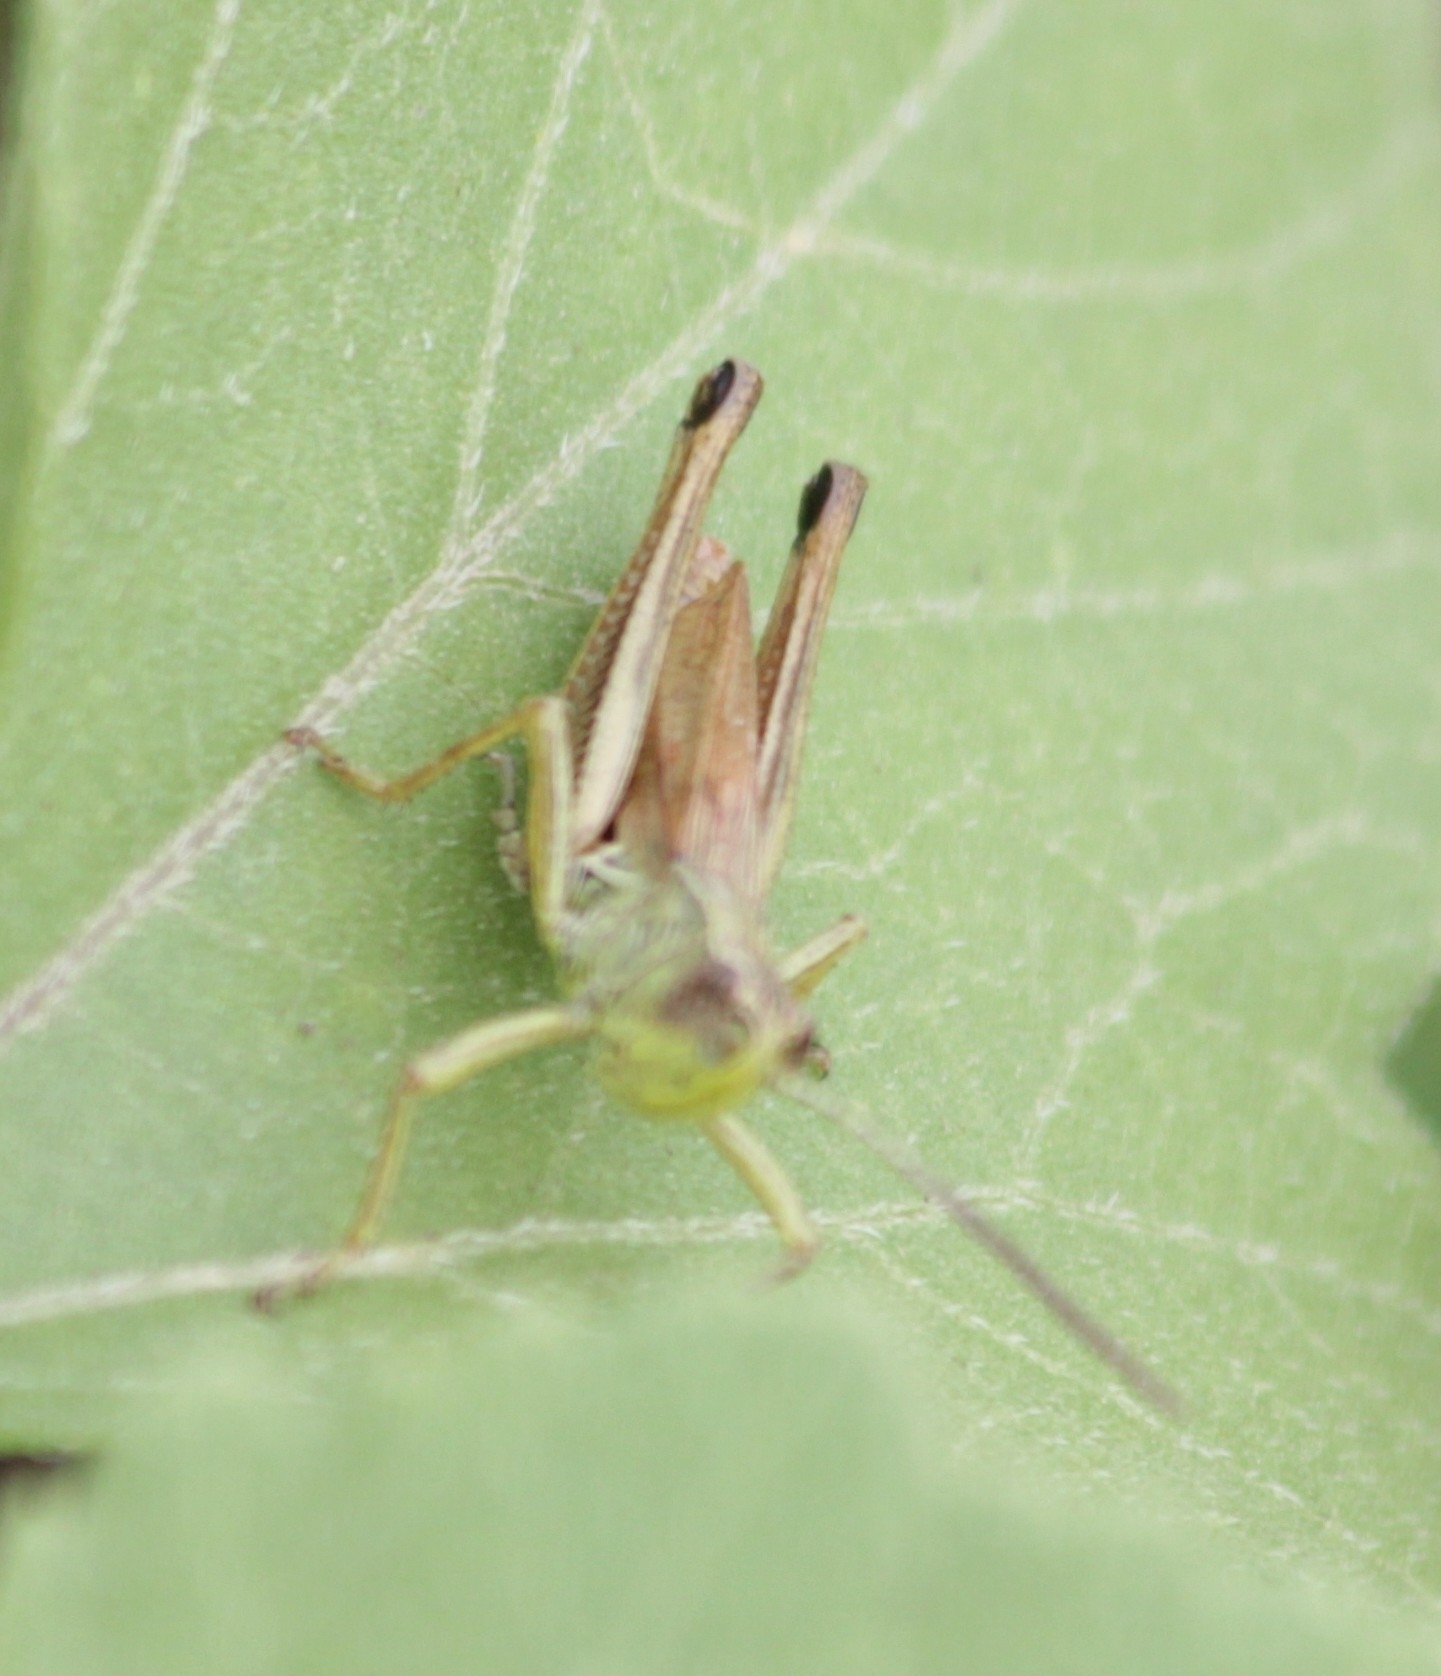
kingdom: Animalia
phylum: Arthropoda
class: Insecta
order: Orthoptera
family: Acrididae
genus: Pseudochorthippus
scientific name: Pseudochorthippus parallelus
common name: Meadow grasshopper
